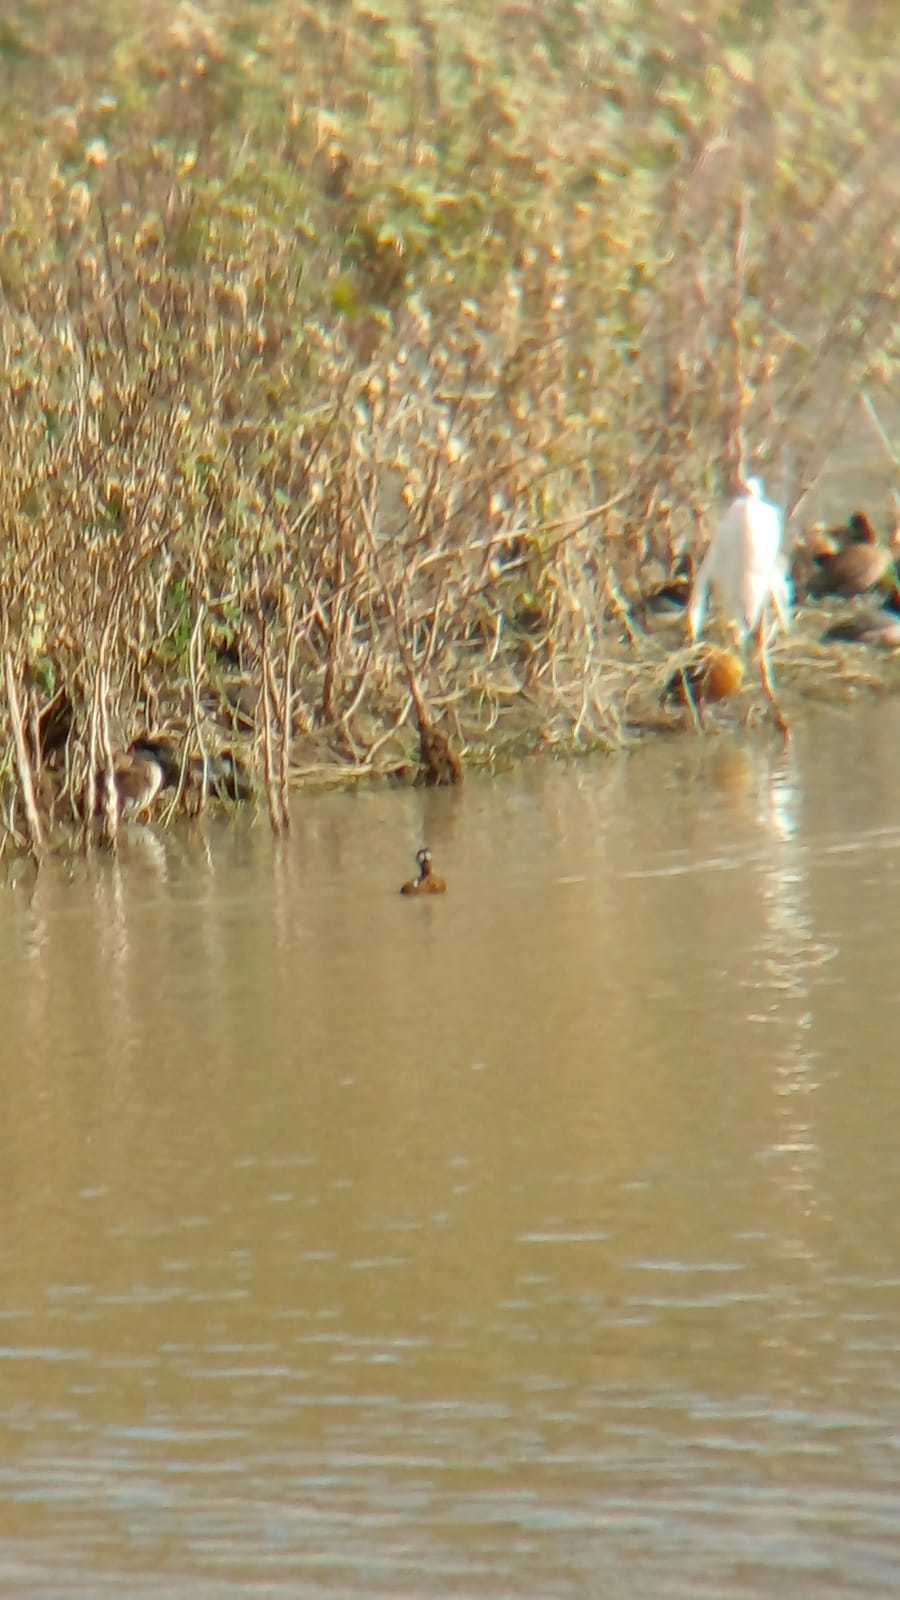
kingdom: Animalia
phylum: Chordata
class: Aves
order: Podicipediformes
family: Podicipedidae
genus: Rollandia
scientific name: Rollandia rolland
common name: White-tufted grebe
